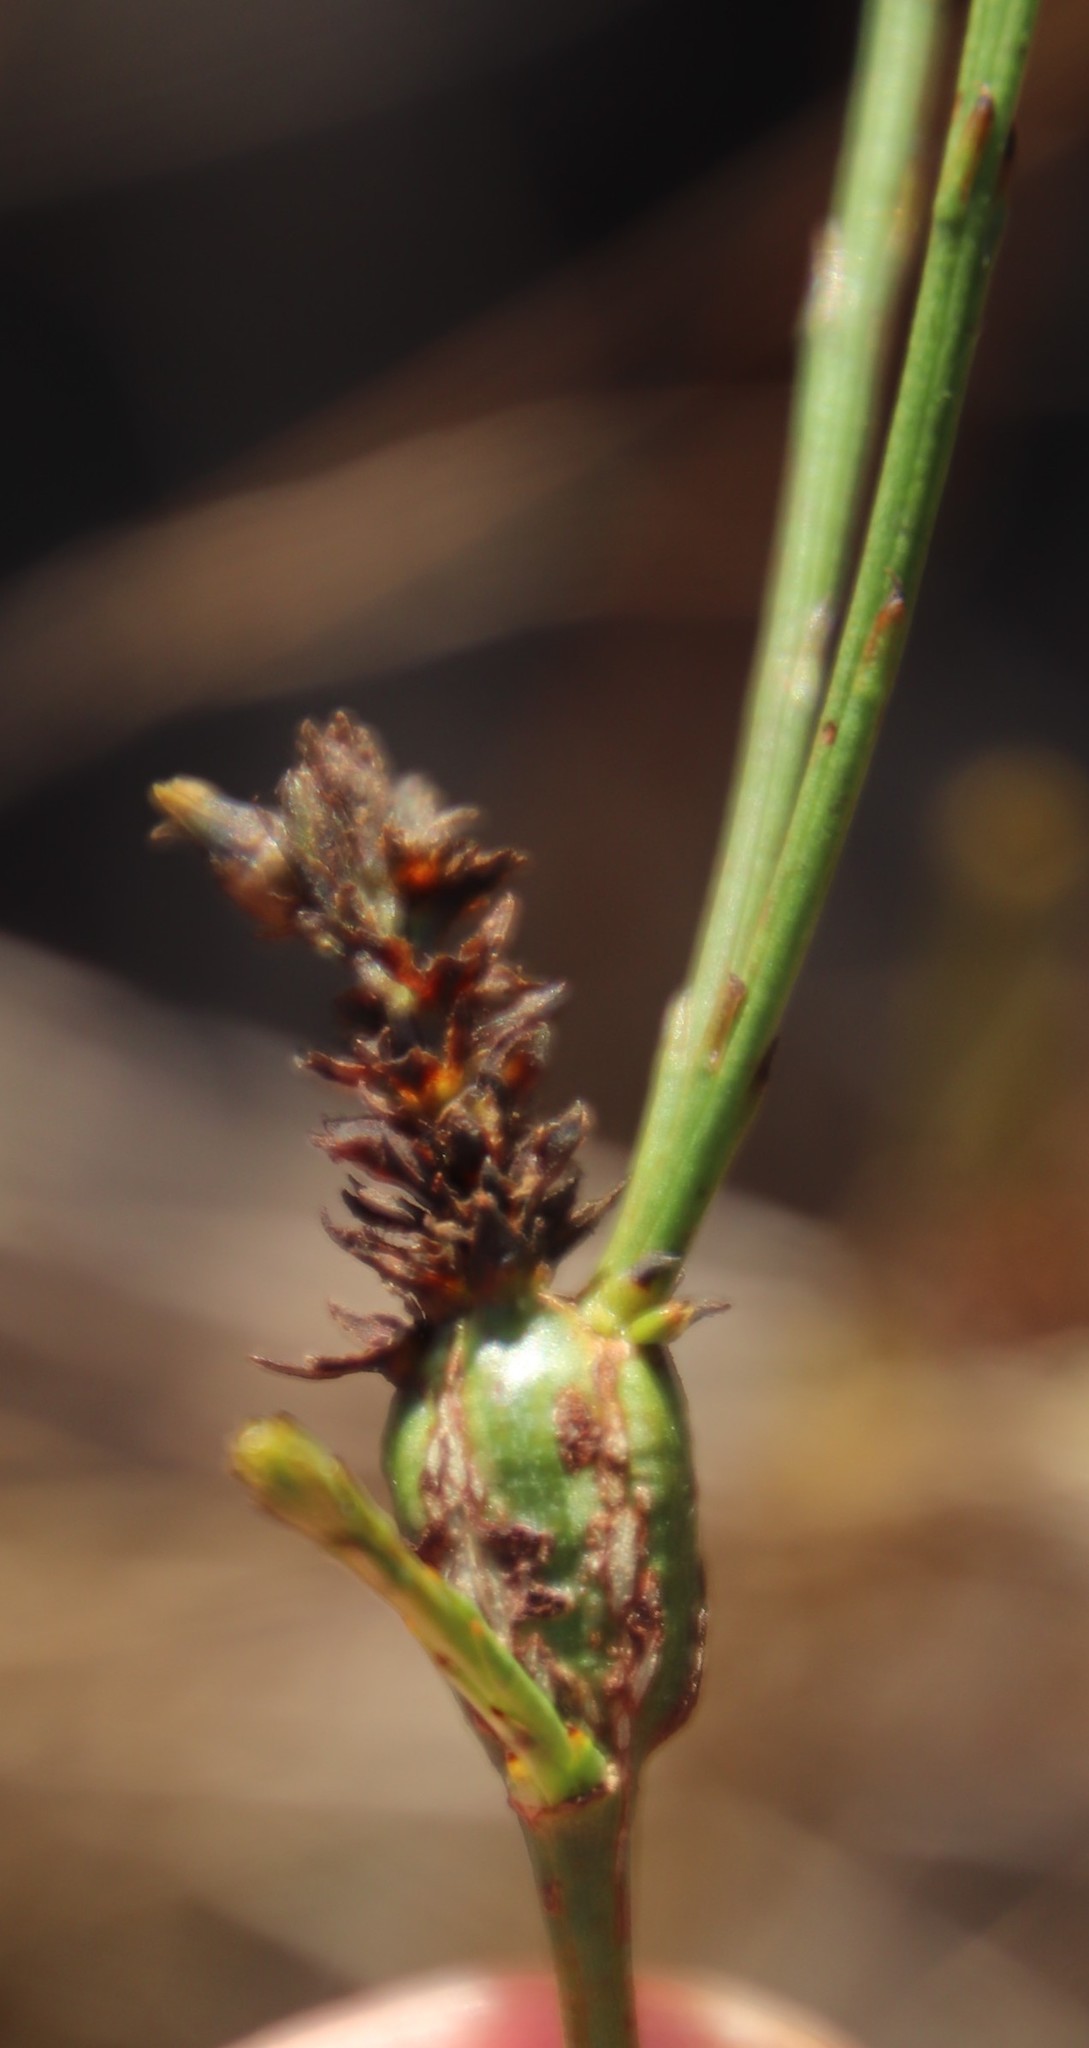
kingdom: Plantae
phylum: Tracheophyta
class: Magnoliopsida
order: Santalales
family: Thesiaceae
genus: Thesium
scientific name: Thesium aggregatum
